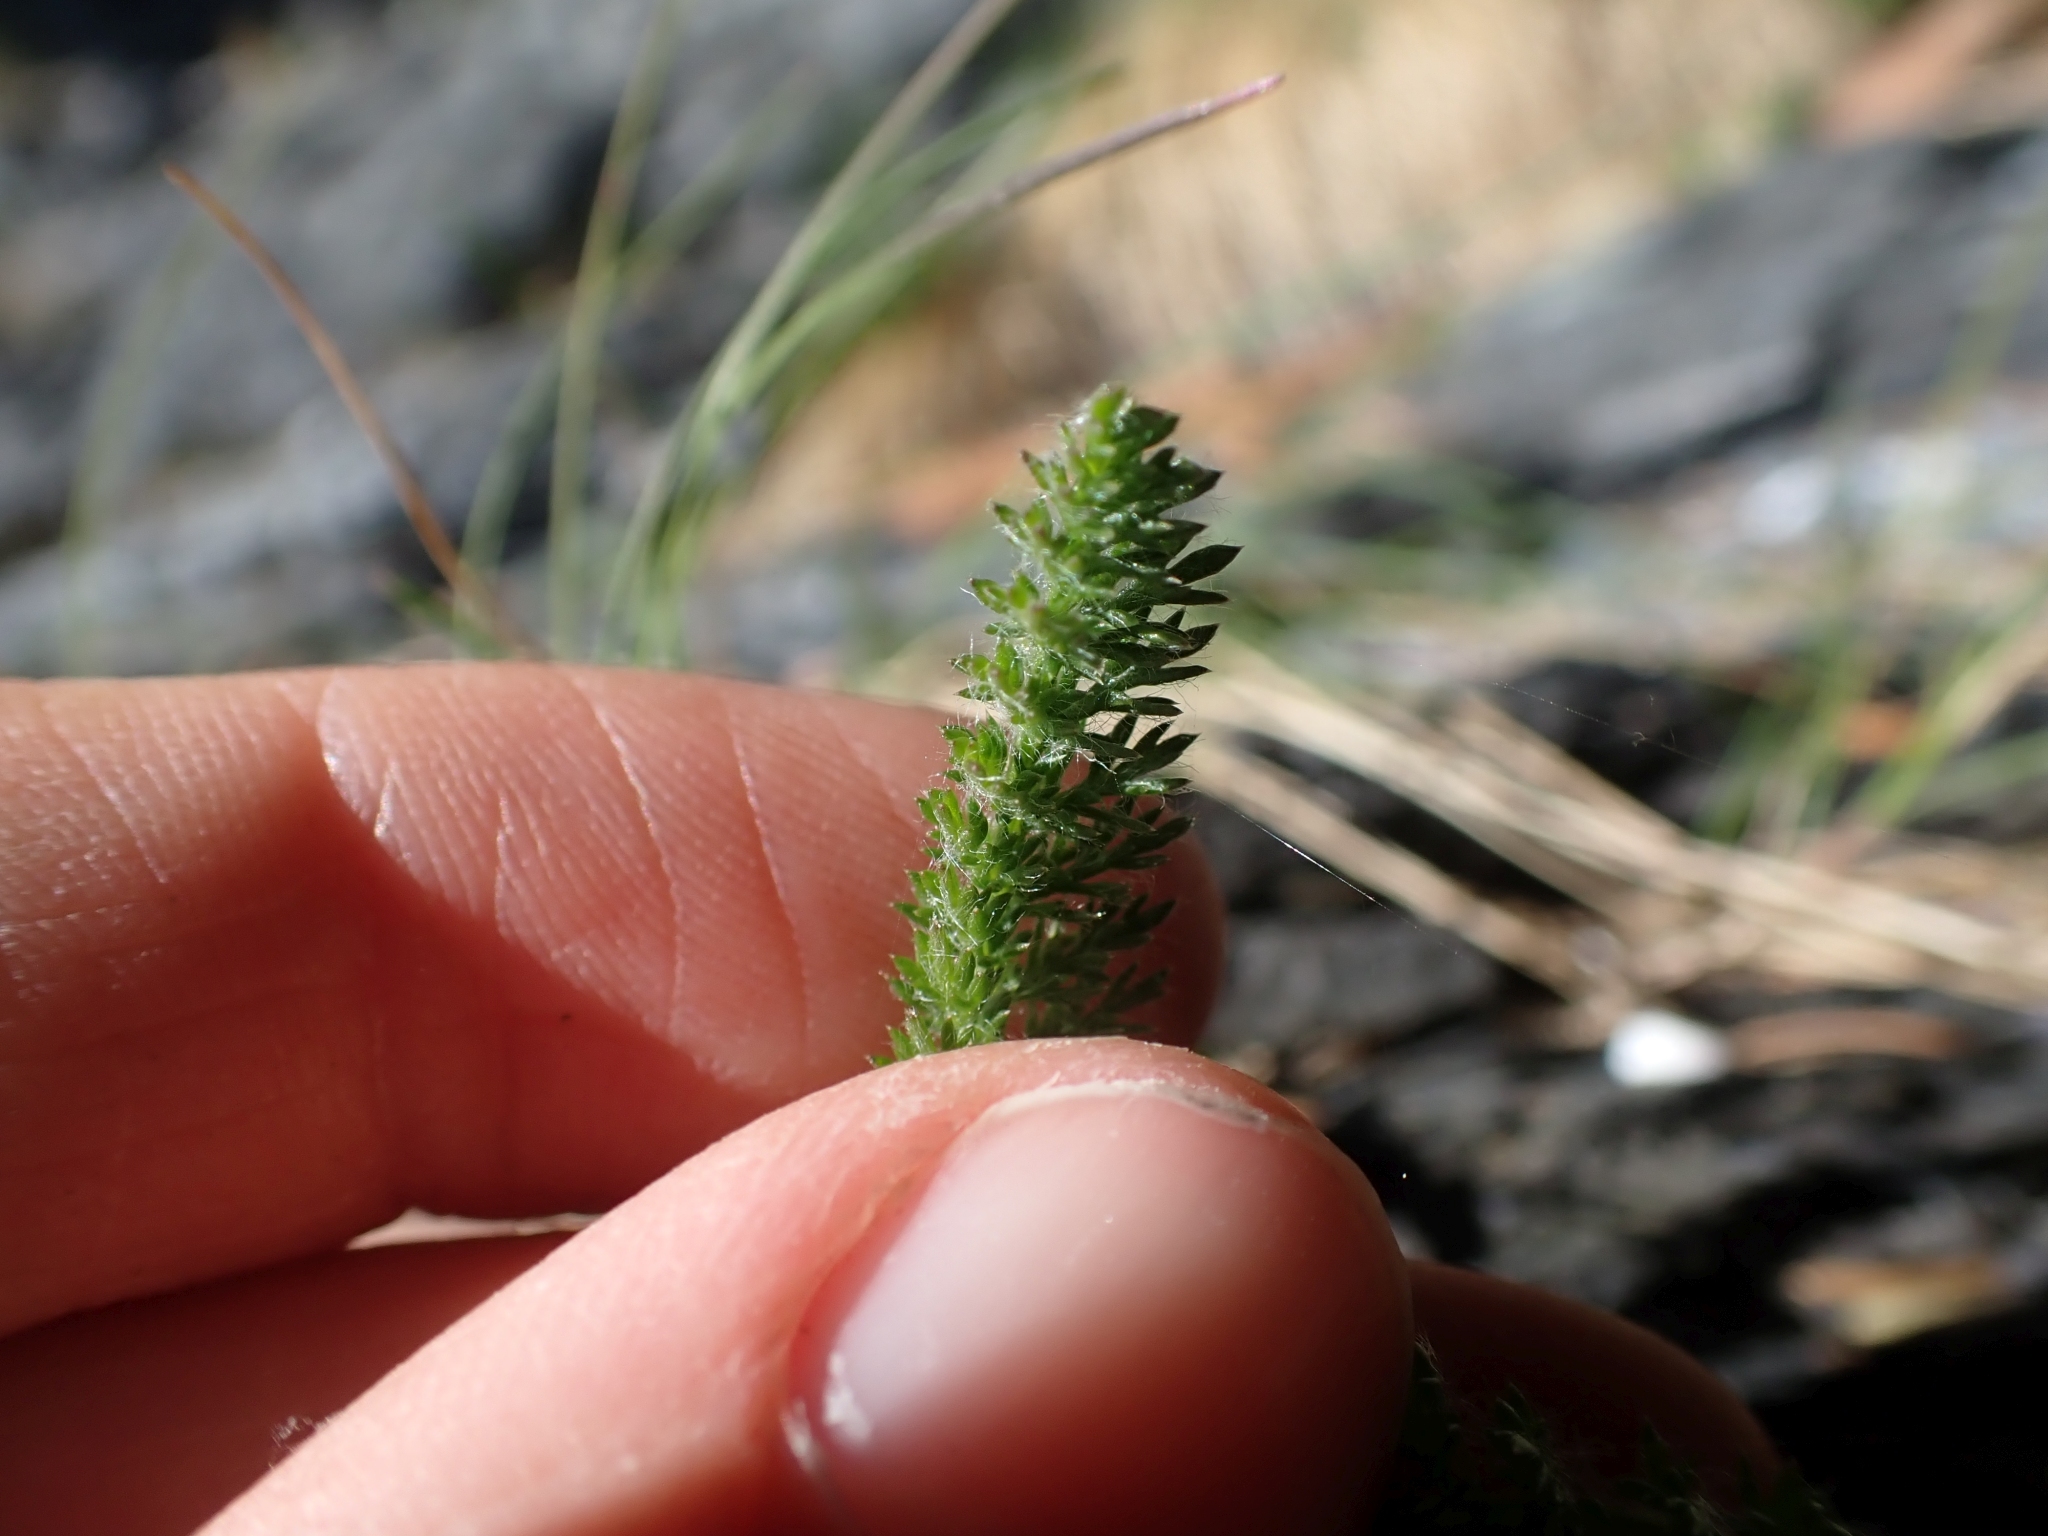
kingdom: Plantae
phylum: Tracheophyta
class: Magnoliopsida
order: Asterales
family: Asteraceae
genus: Achillea
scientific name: Achillea millefolium
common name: Yarrow
